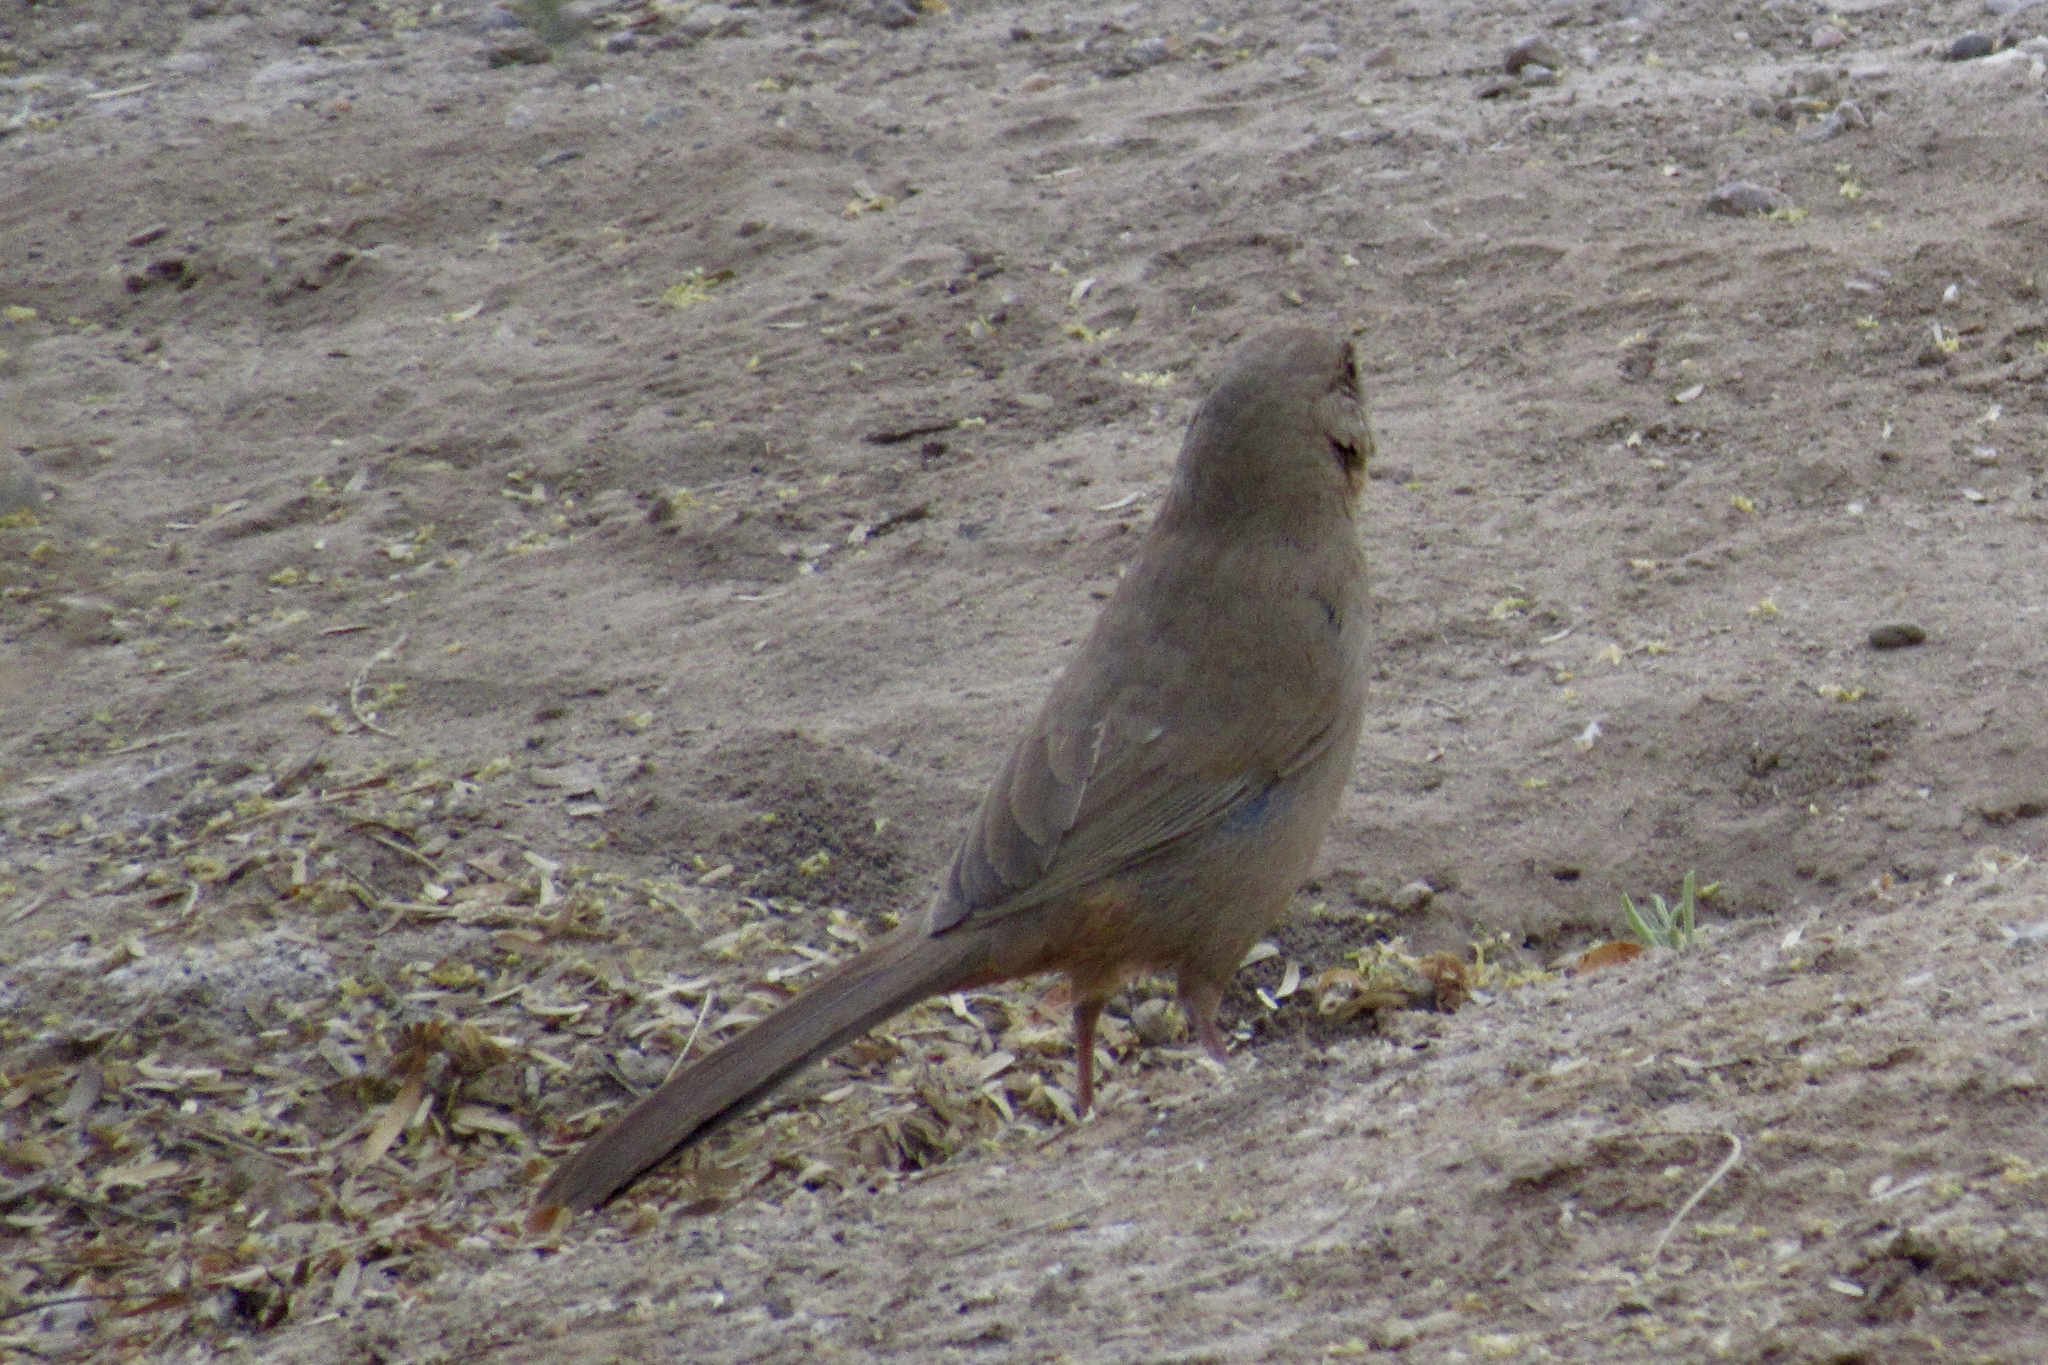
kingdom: Animalia
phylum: Chordata
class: Aves
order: Passeriformes
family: Passerellidae
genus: Melozone
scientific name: Melozone aberti
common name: Abert's towhee
